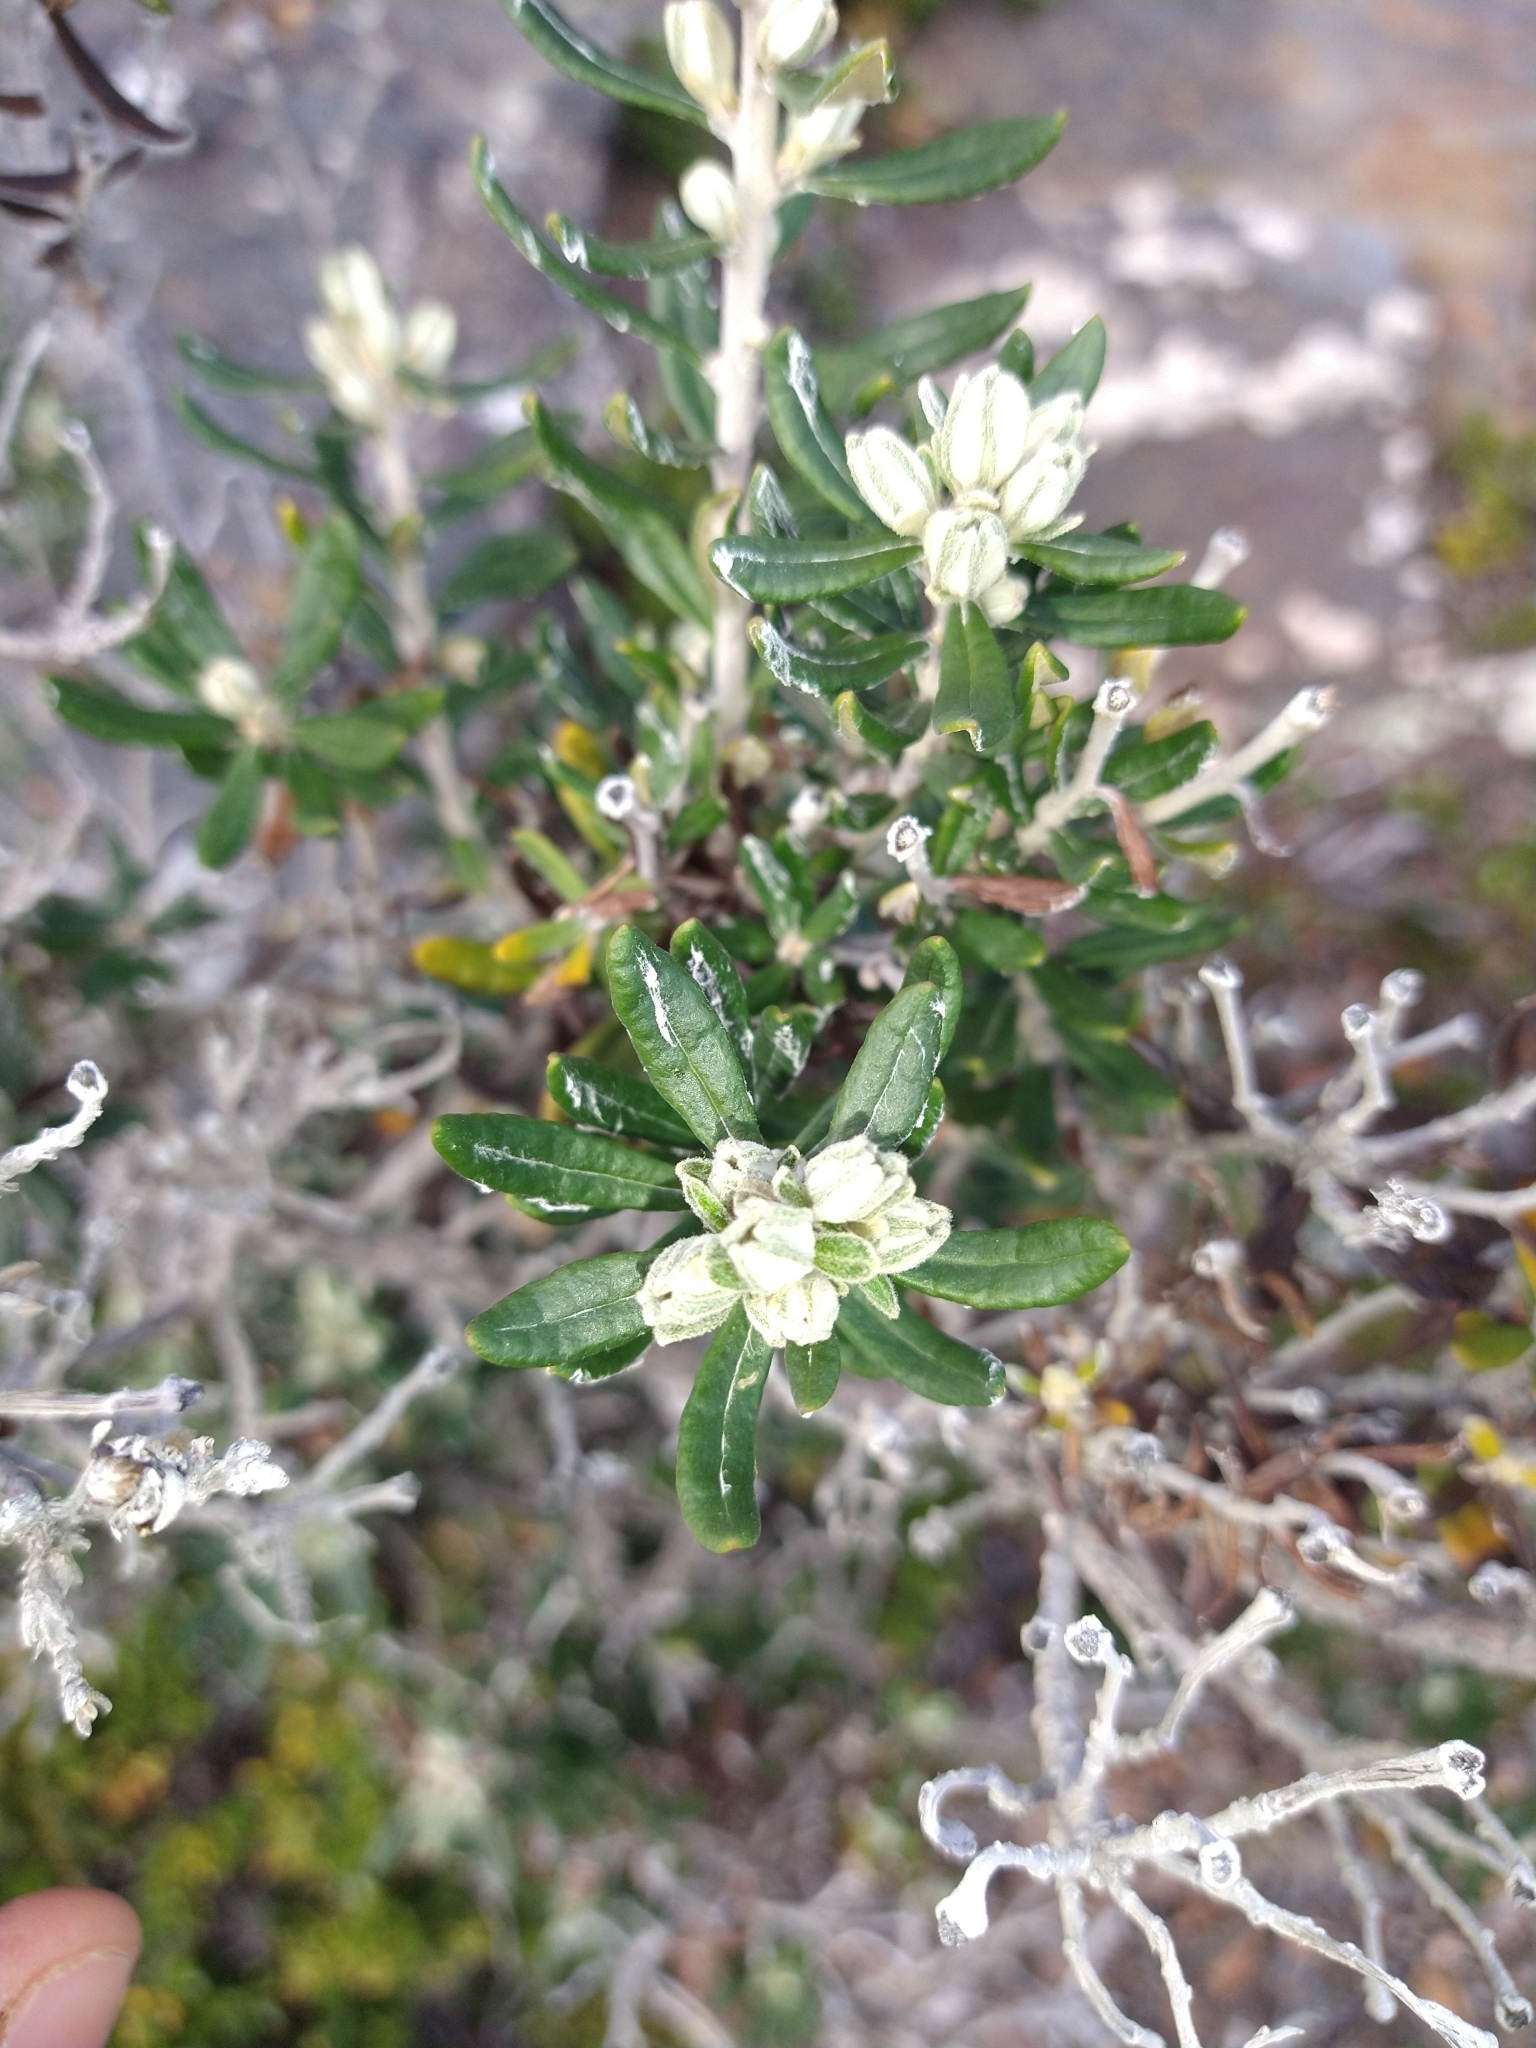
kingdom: Plantae
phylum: Tracheophyta
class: Magnoliopsida
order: Asterales
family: Asteraceae
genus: Chiliotrichum
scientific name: Chiliotrichum diffusum
